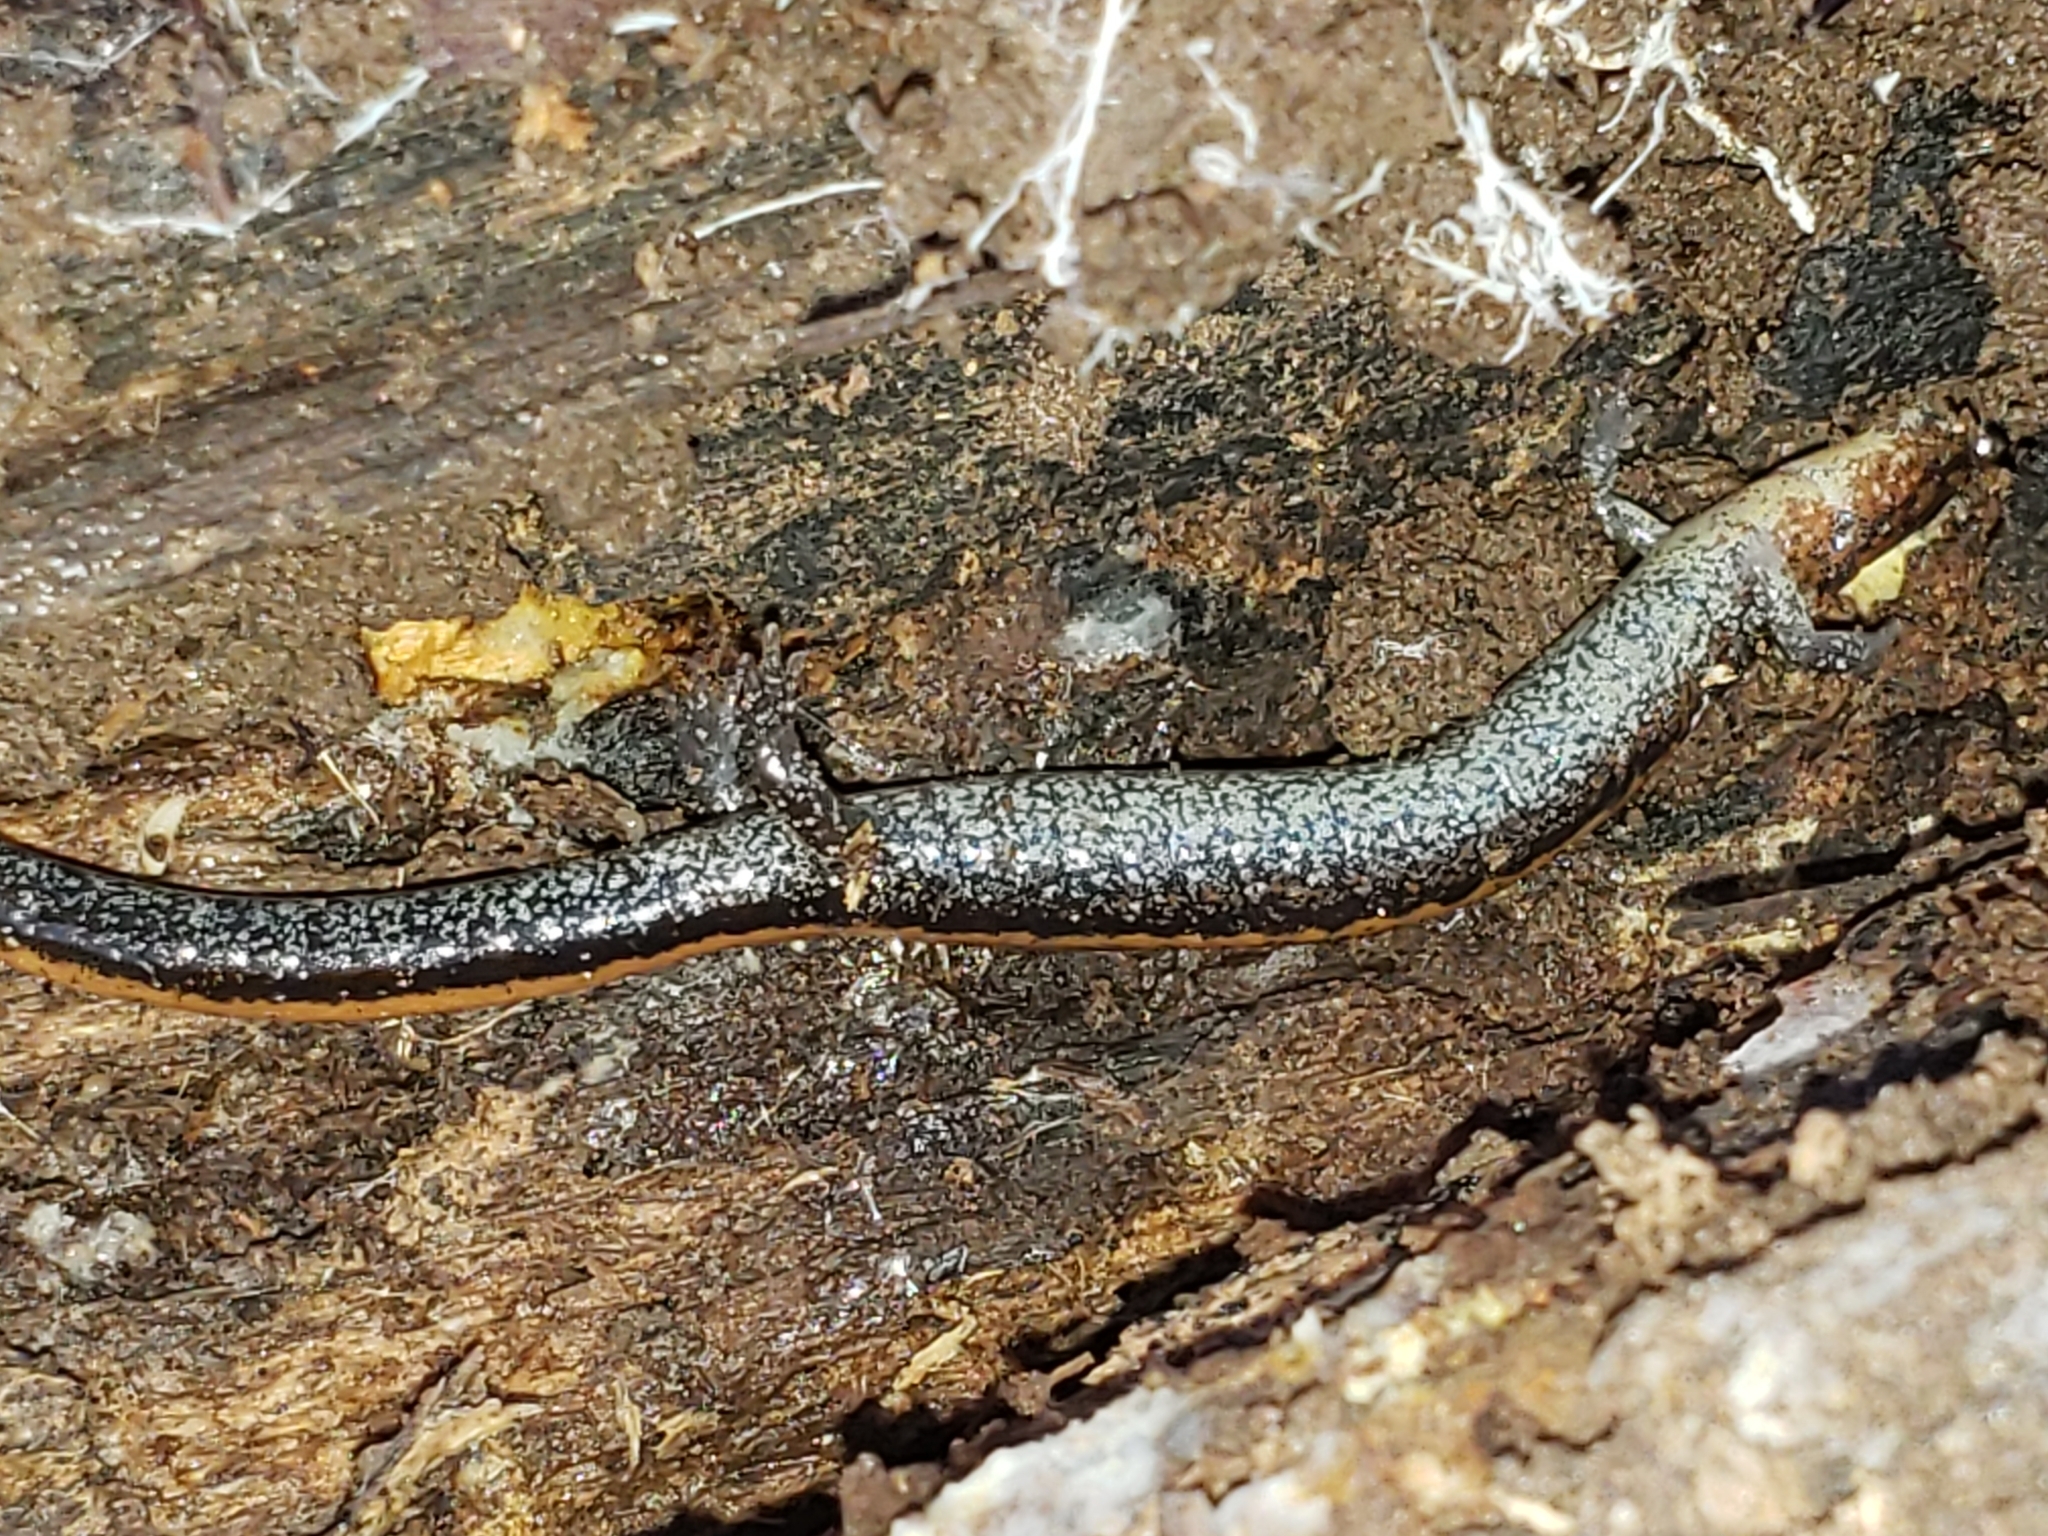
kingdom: Animalia
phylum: Chordata
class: Amphibia
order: Caudata
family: Plethodontidae
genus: Plethodon
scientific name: Plethodon cinereus
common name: Redback salamander
